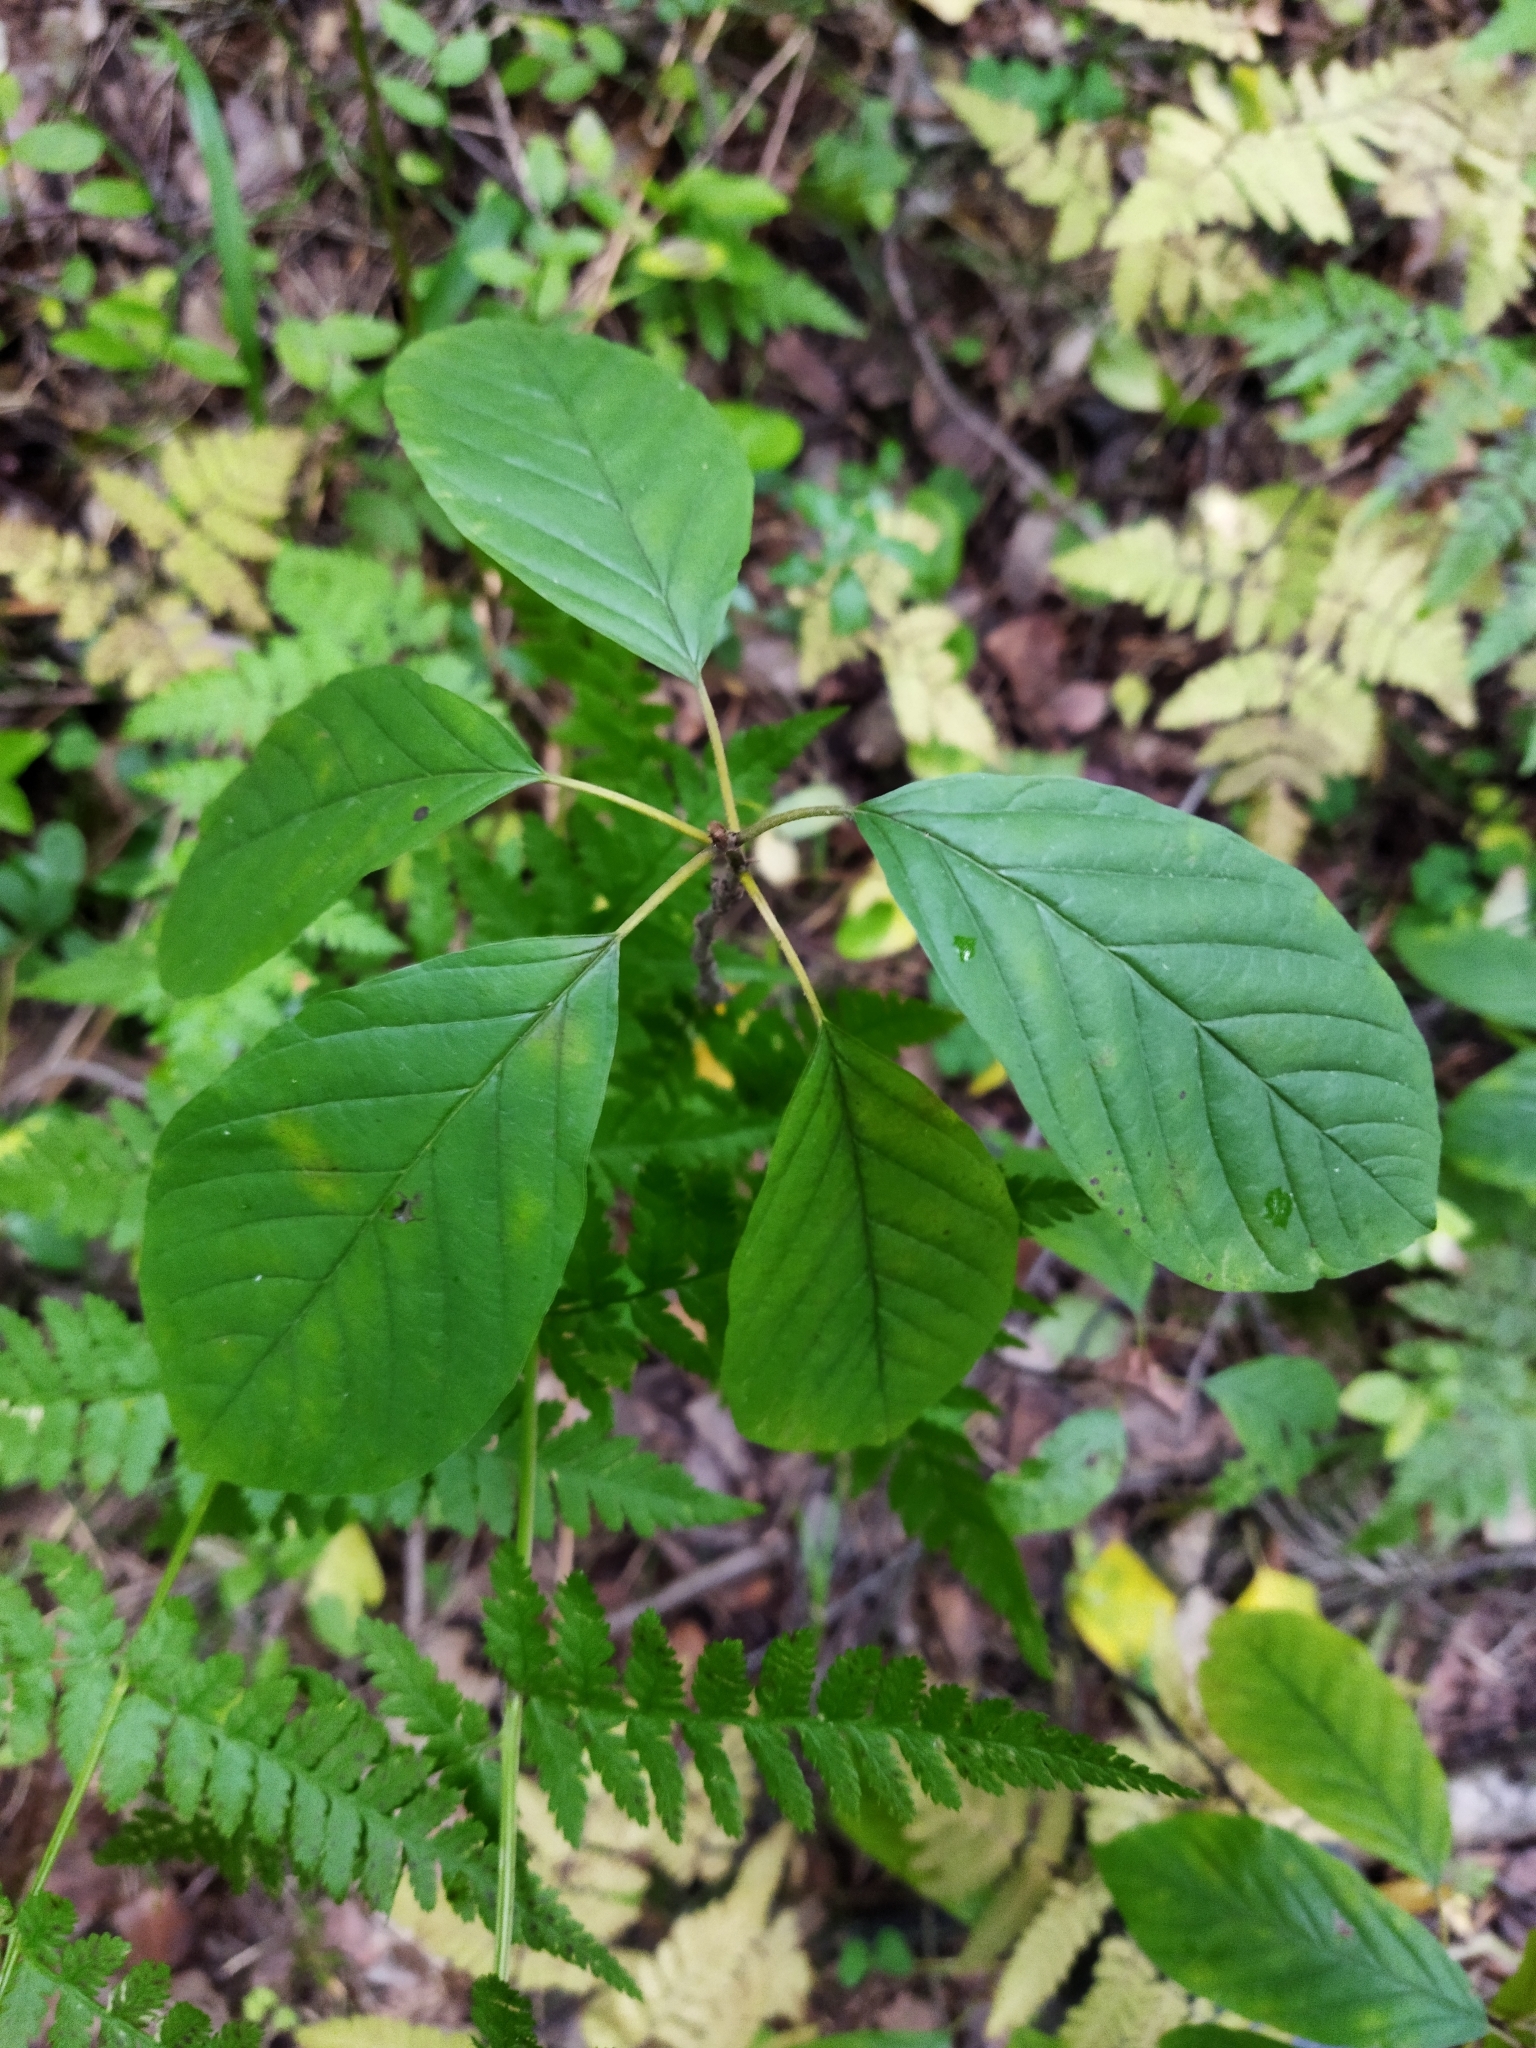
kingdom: Plantae
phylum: Tracheophyta
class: Magnoliopsida
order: Rosales
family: Rhamnaceae
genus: Frangula
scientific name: Frangula alnus
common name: Alder buckthorn
